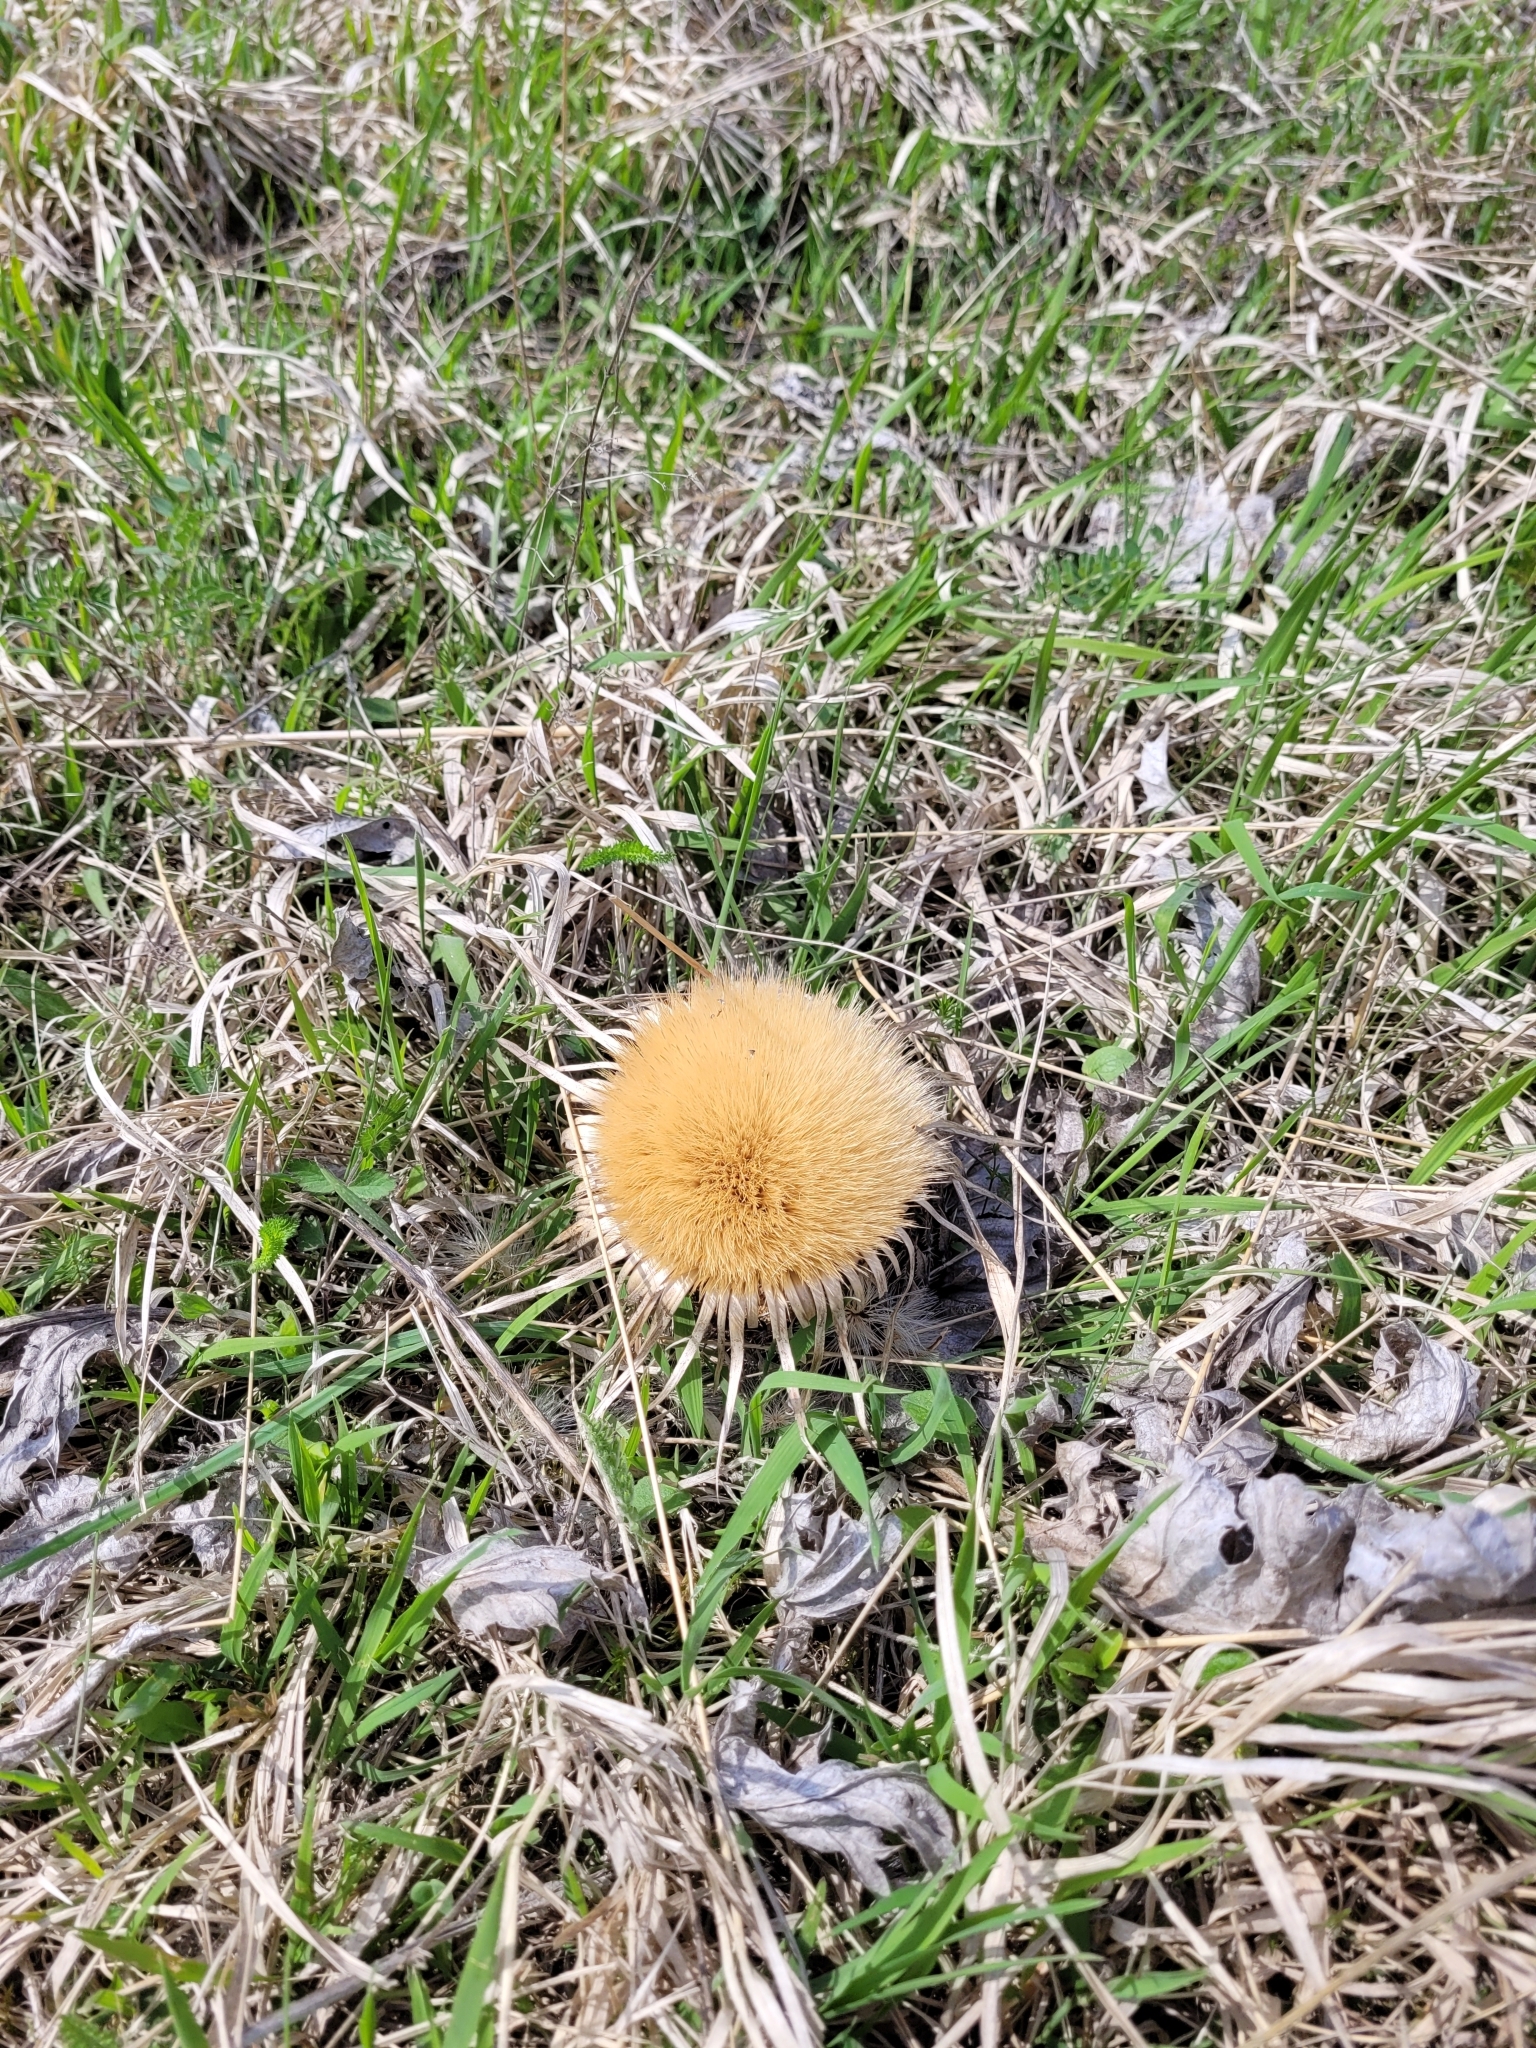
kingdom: Plantae
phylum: Tracheophyta
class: Magnoliopsida
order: Asterales
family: Asteraceae
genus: Carlina
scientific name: Carlina acanthifolia
